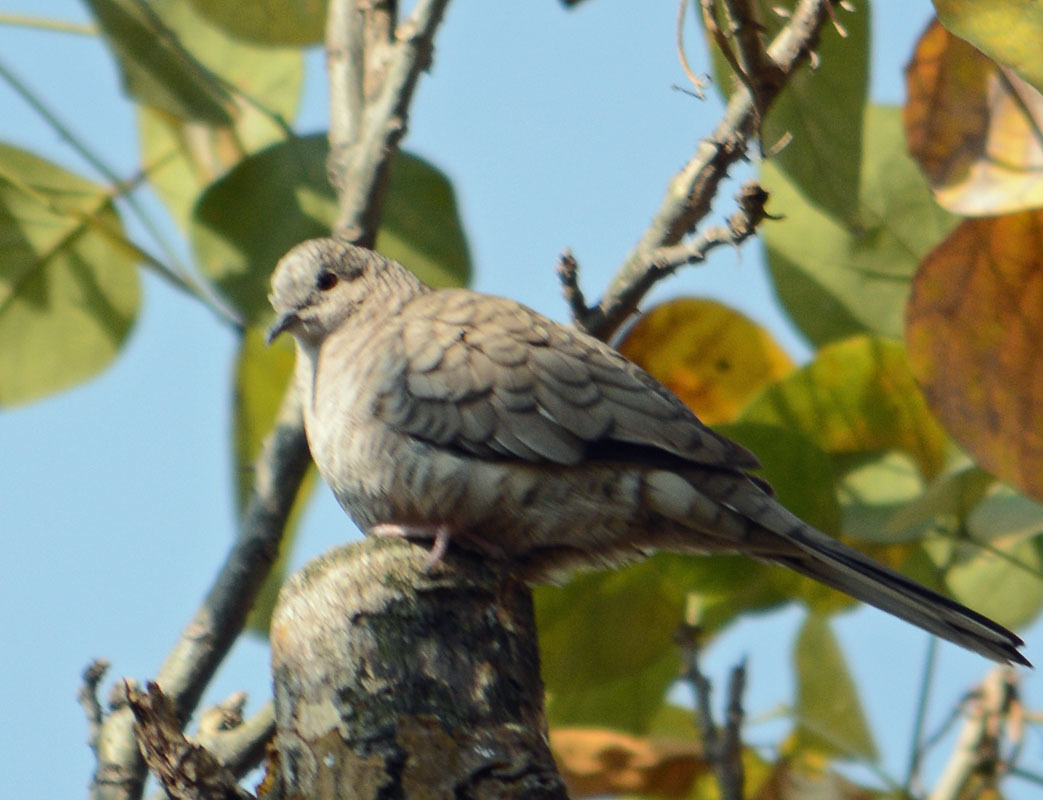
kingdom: Animalia
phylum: Chordata
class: Aves
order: Columbiformes
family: Columbidae
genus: Columbina
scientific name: Columbina inca
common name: Inca dove
